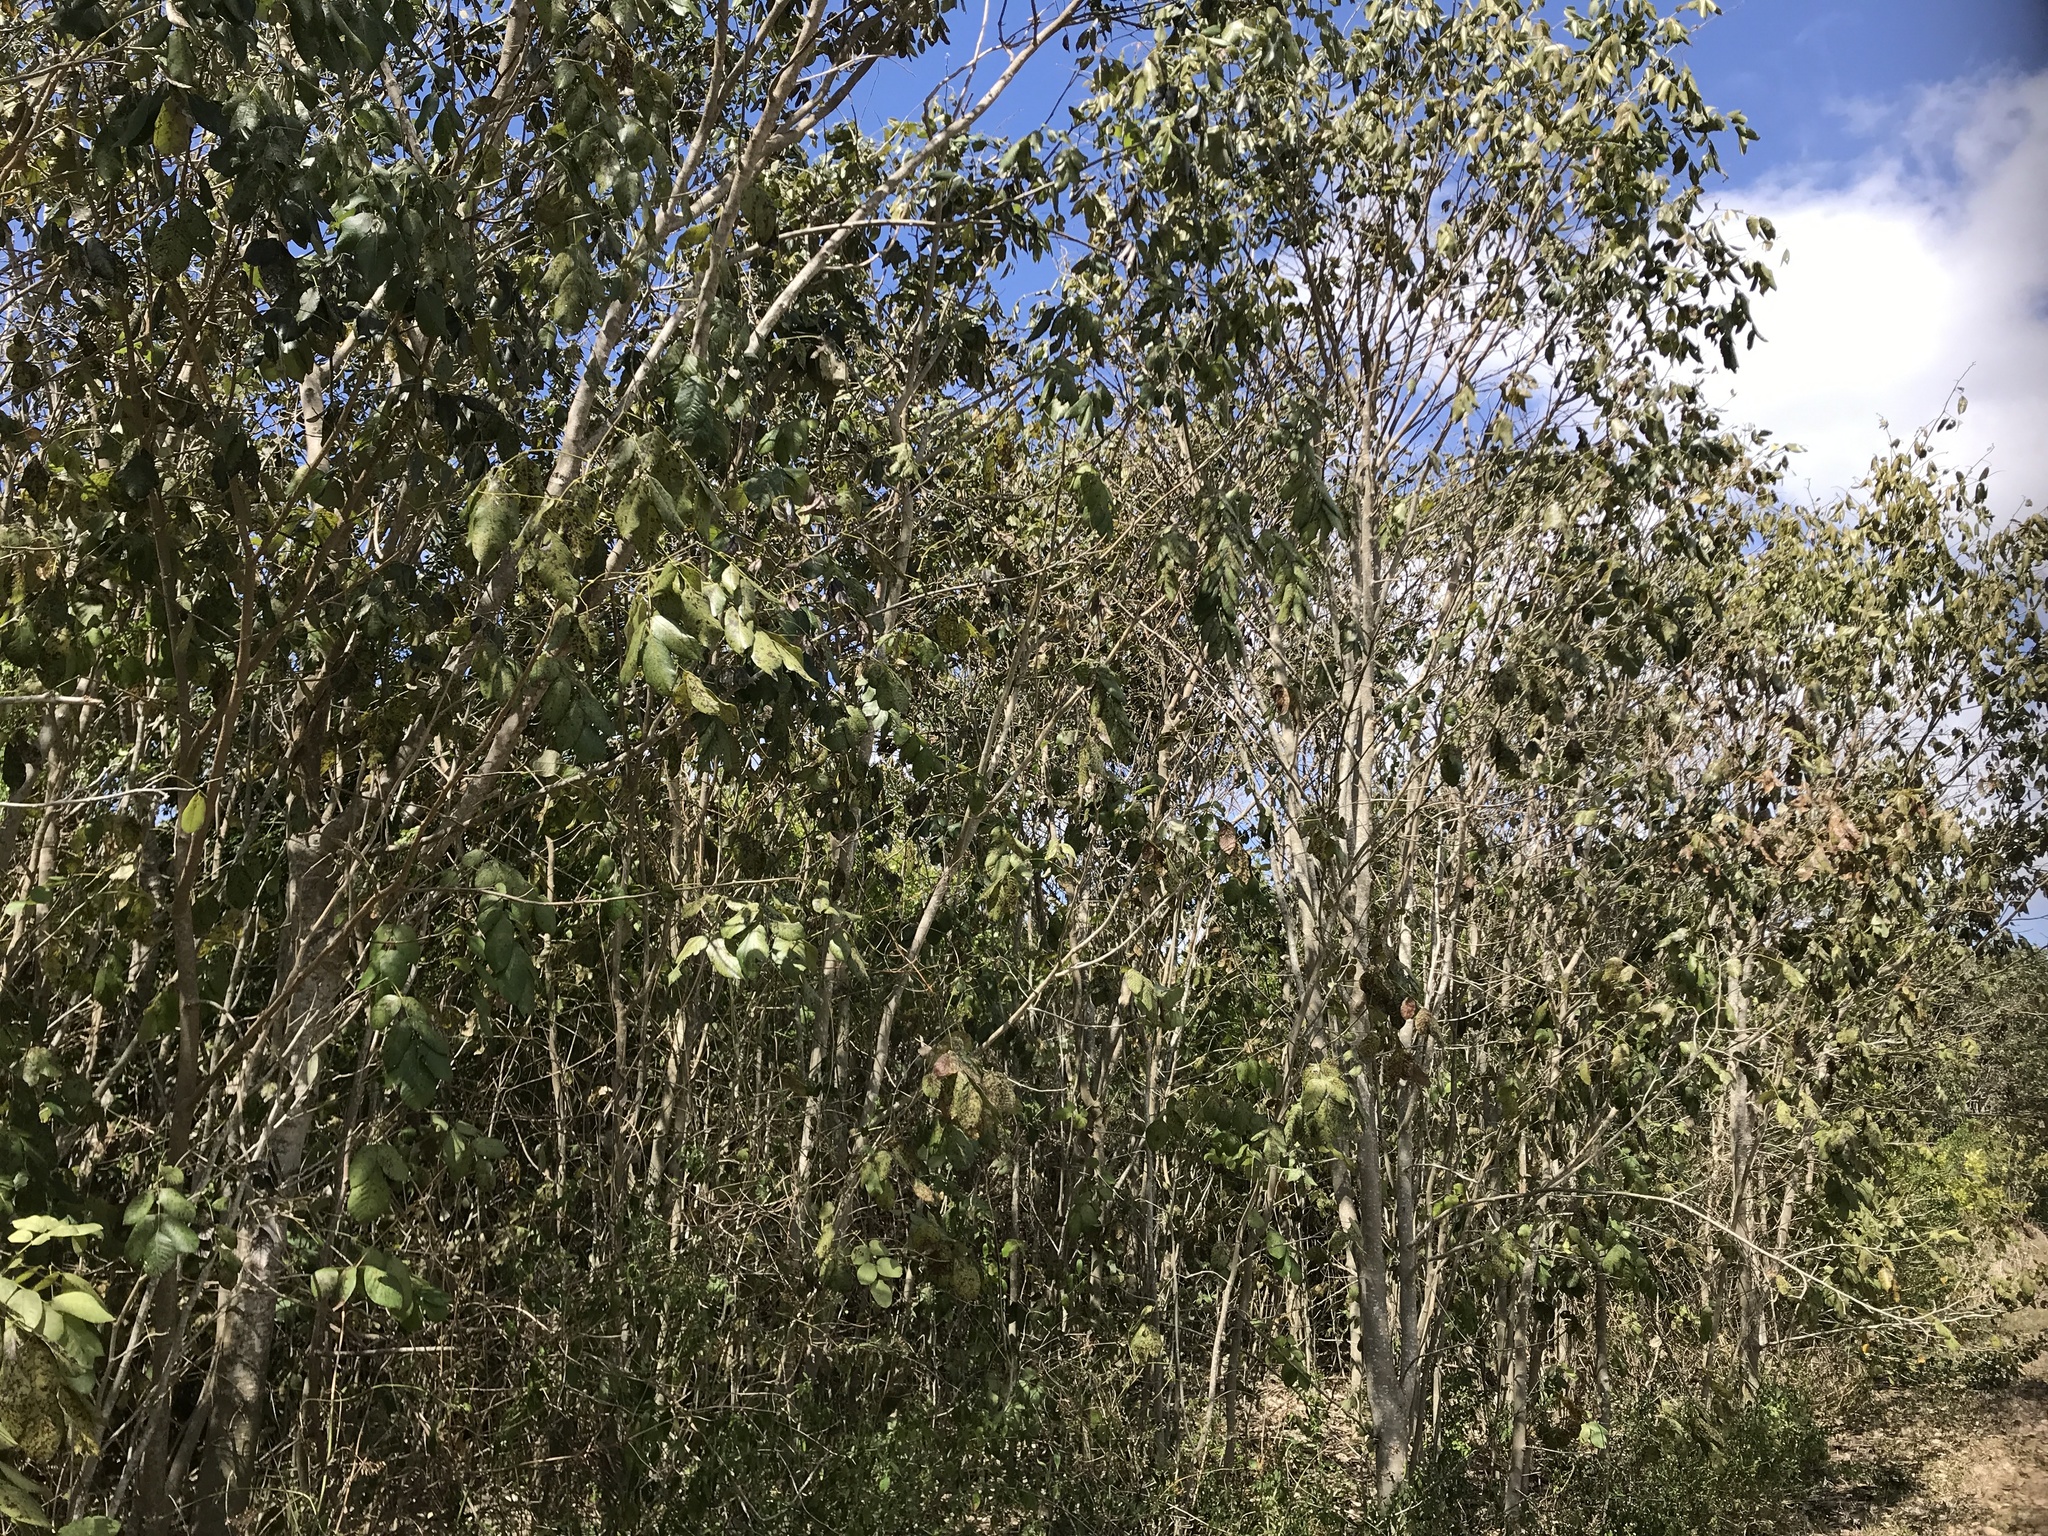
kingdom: Plantae
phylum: Tracheophyta
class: Magnoliopsida
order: Fabales
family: Fabaceae
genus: Piscidia
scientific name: Piscidia piscipula
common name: Florida fishpoison tree
